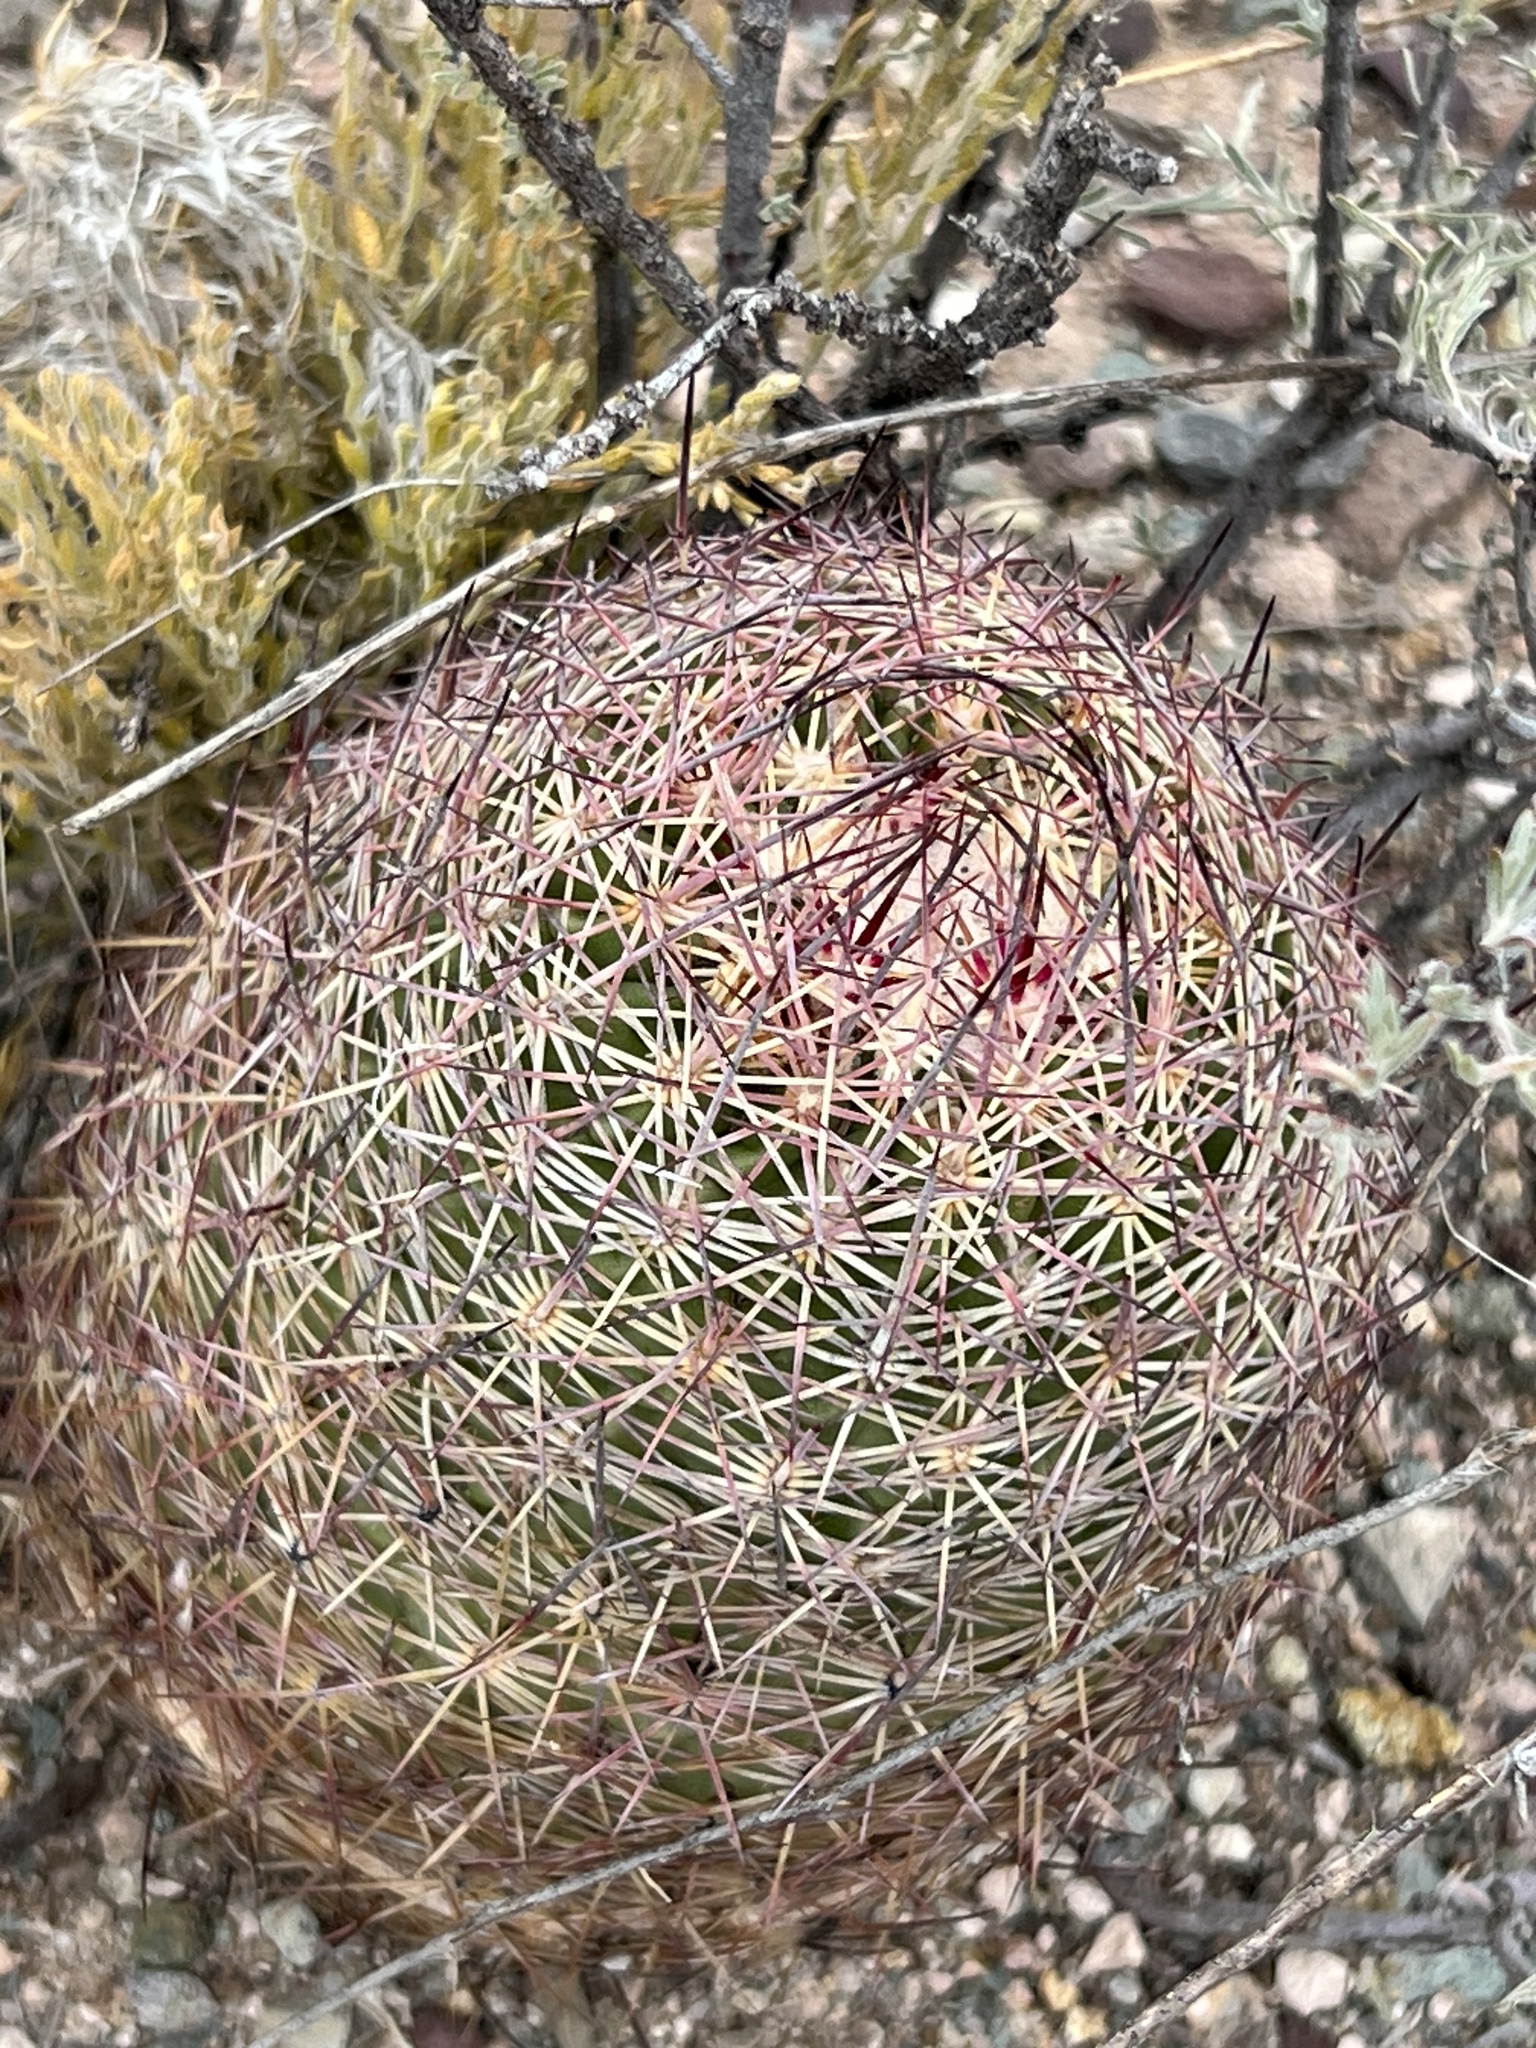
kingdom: Plantae
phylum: Tracheophyta
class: Magnoliopsida
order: Caryophyllales
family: Cactaceae
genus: Sclerocactus
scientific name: Sclerocactus johnsonii
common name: Eight-spine fishhook cactus
